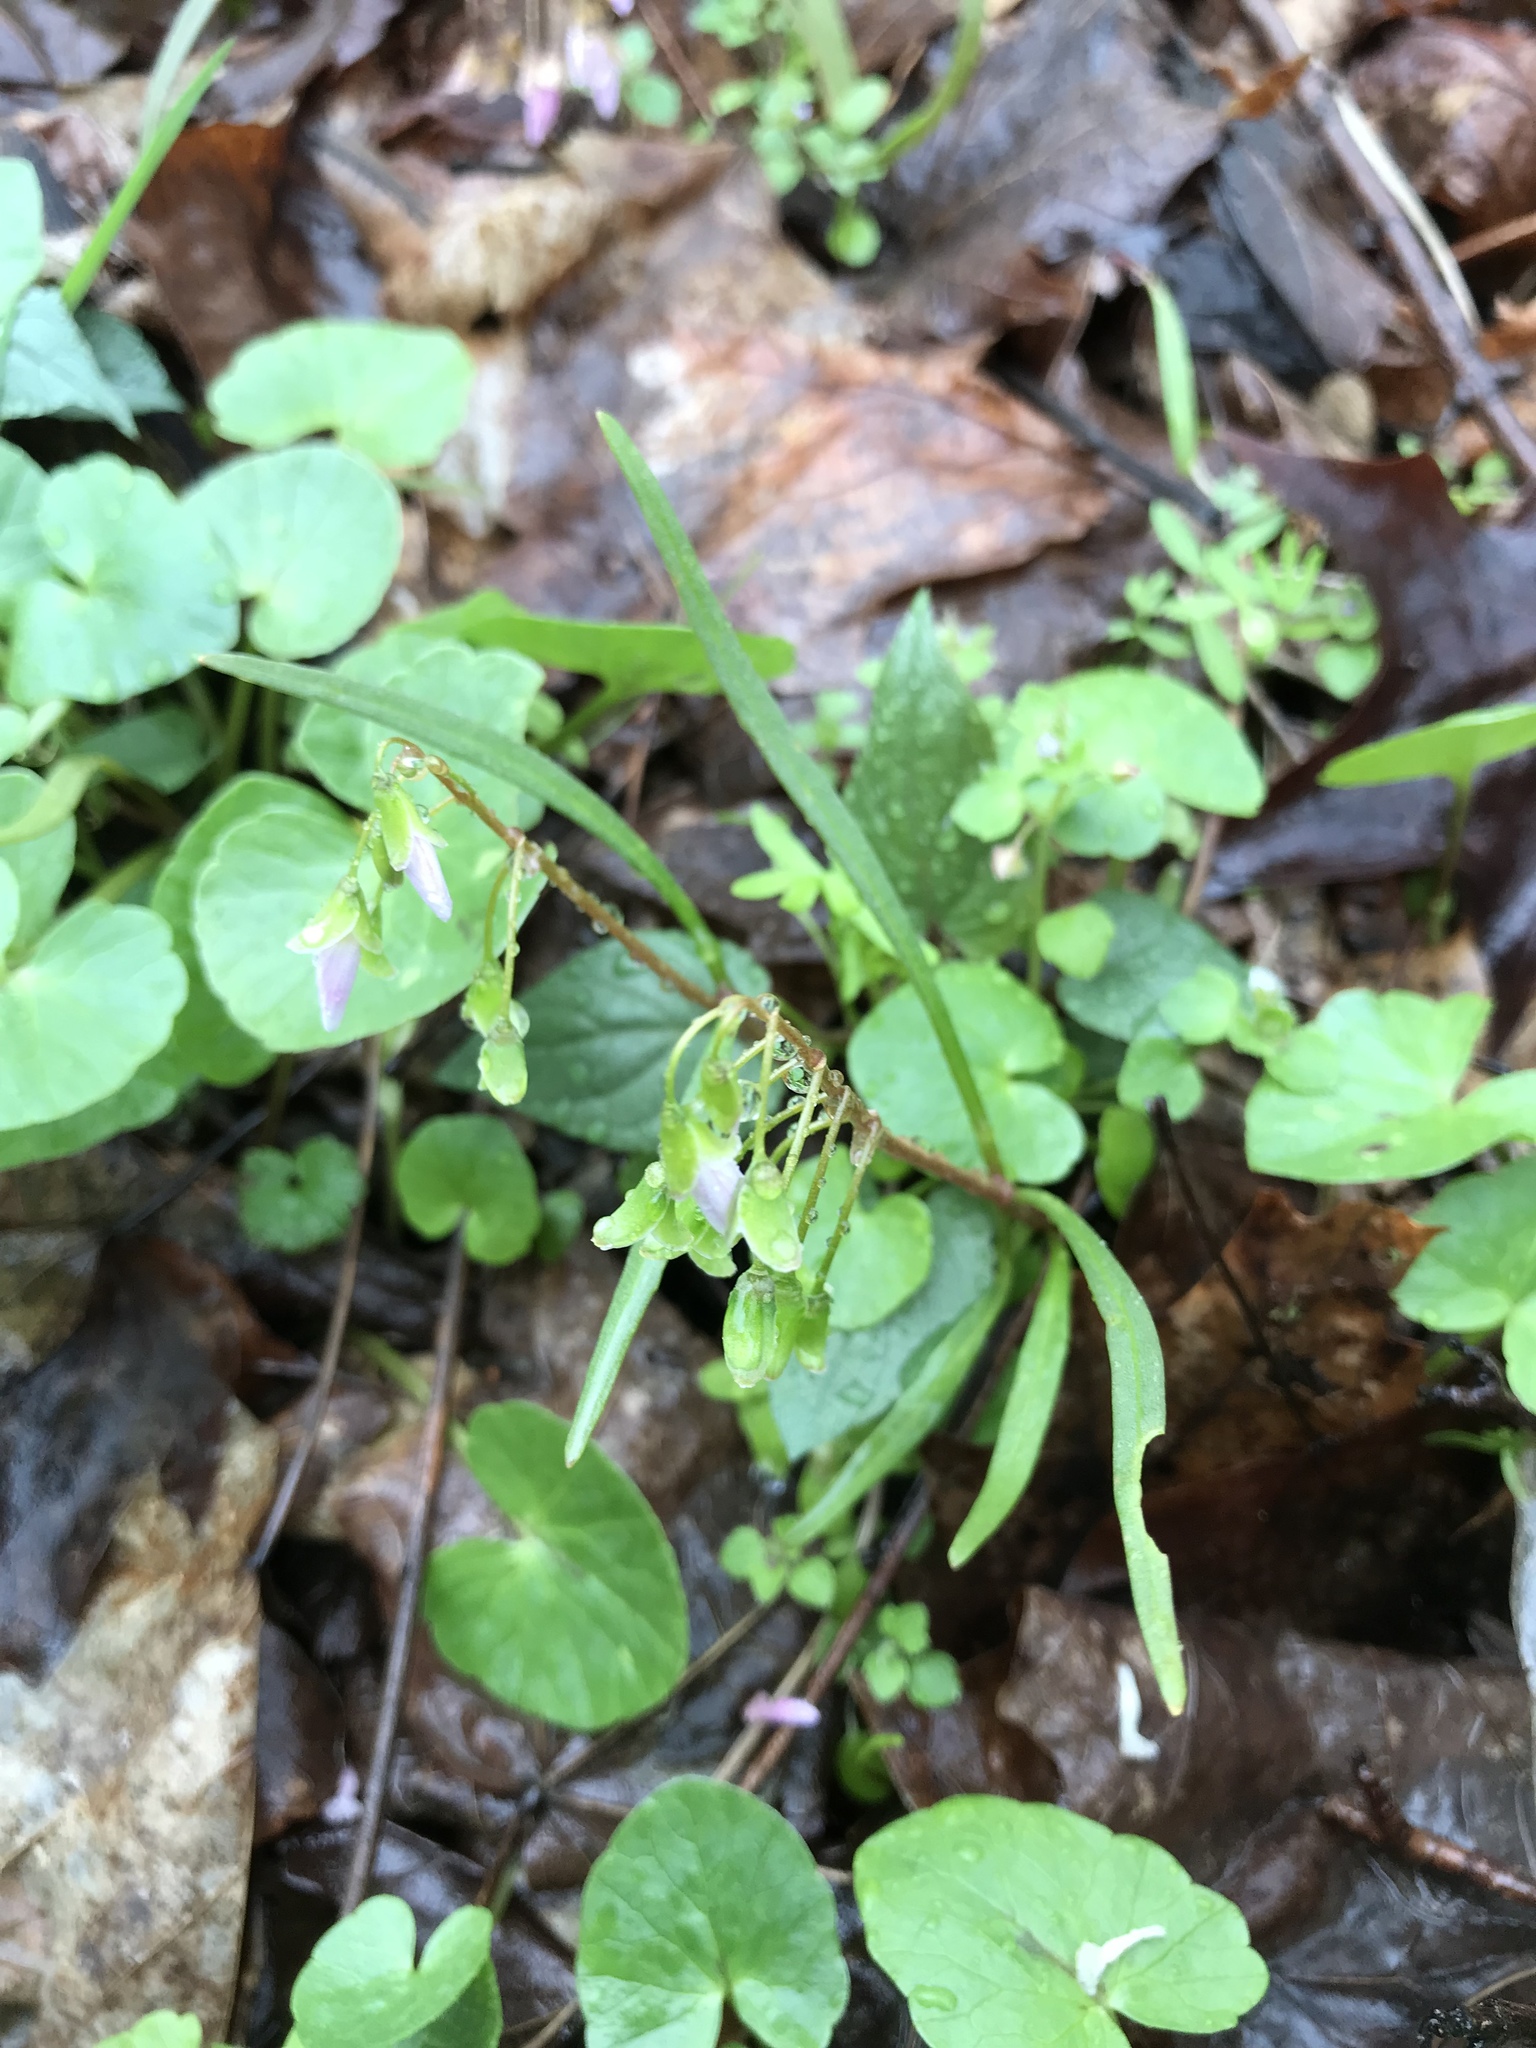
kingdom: Plantae
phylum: Tracheophyta
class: Magnoliopsida
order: Caryophyllales
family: Montiaceae
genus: Claytonia
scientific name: Claytonia virginica
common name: Virginia springbeauty
